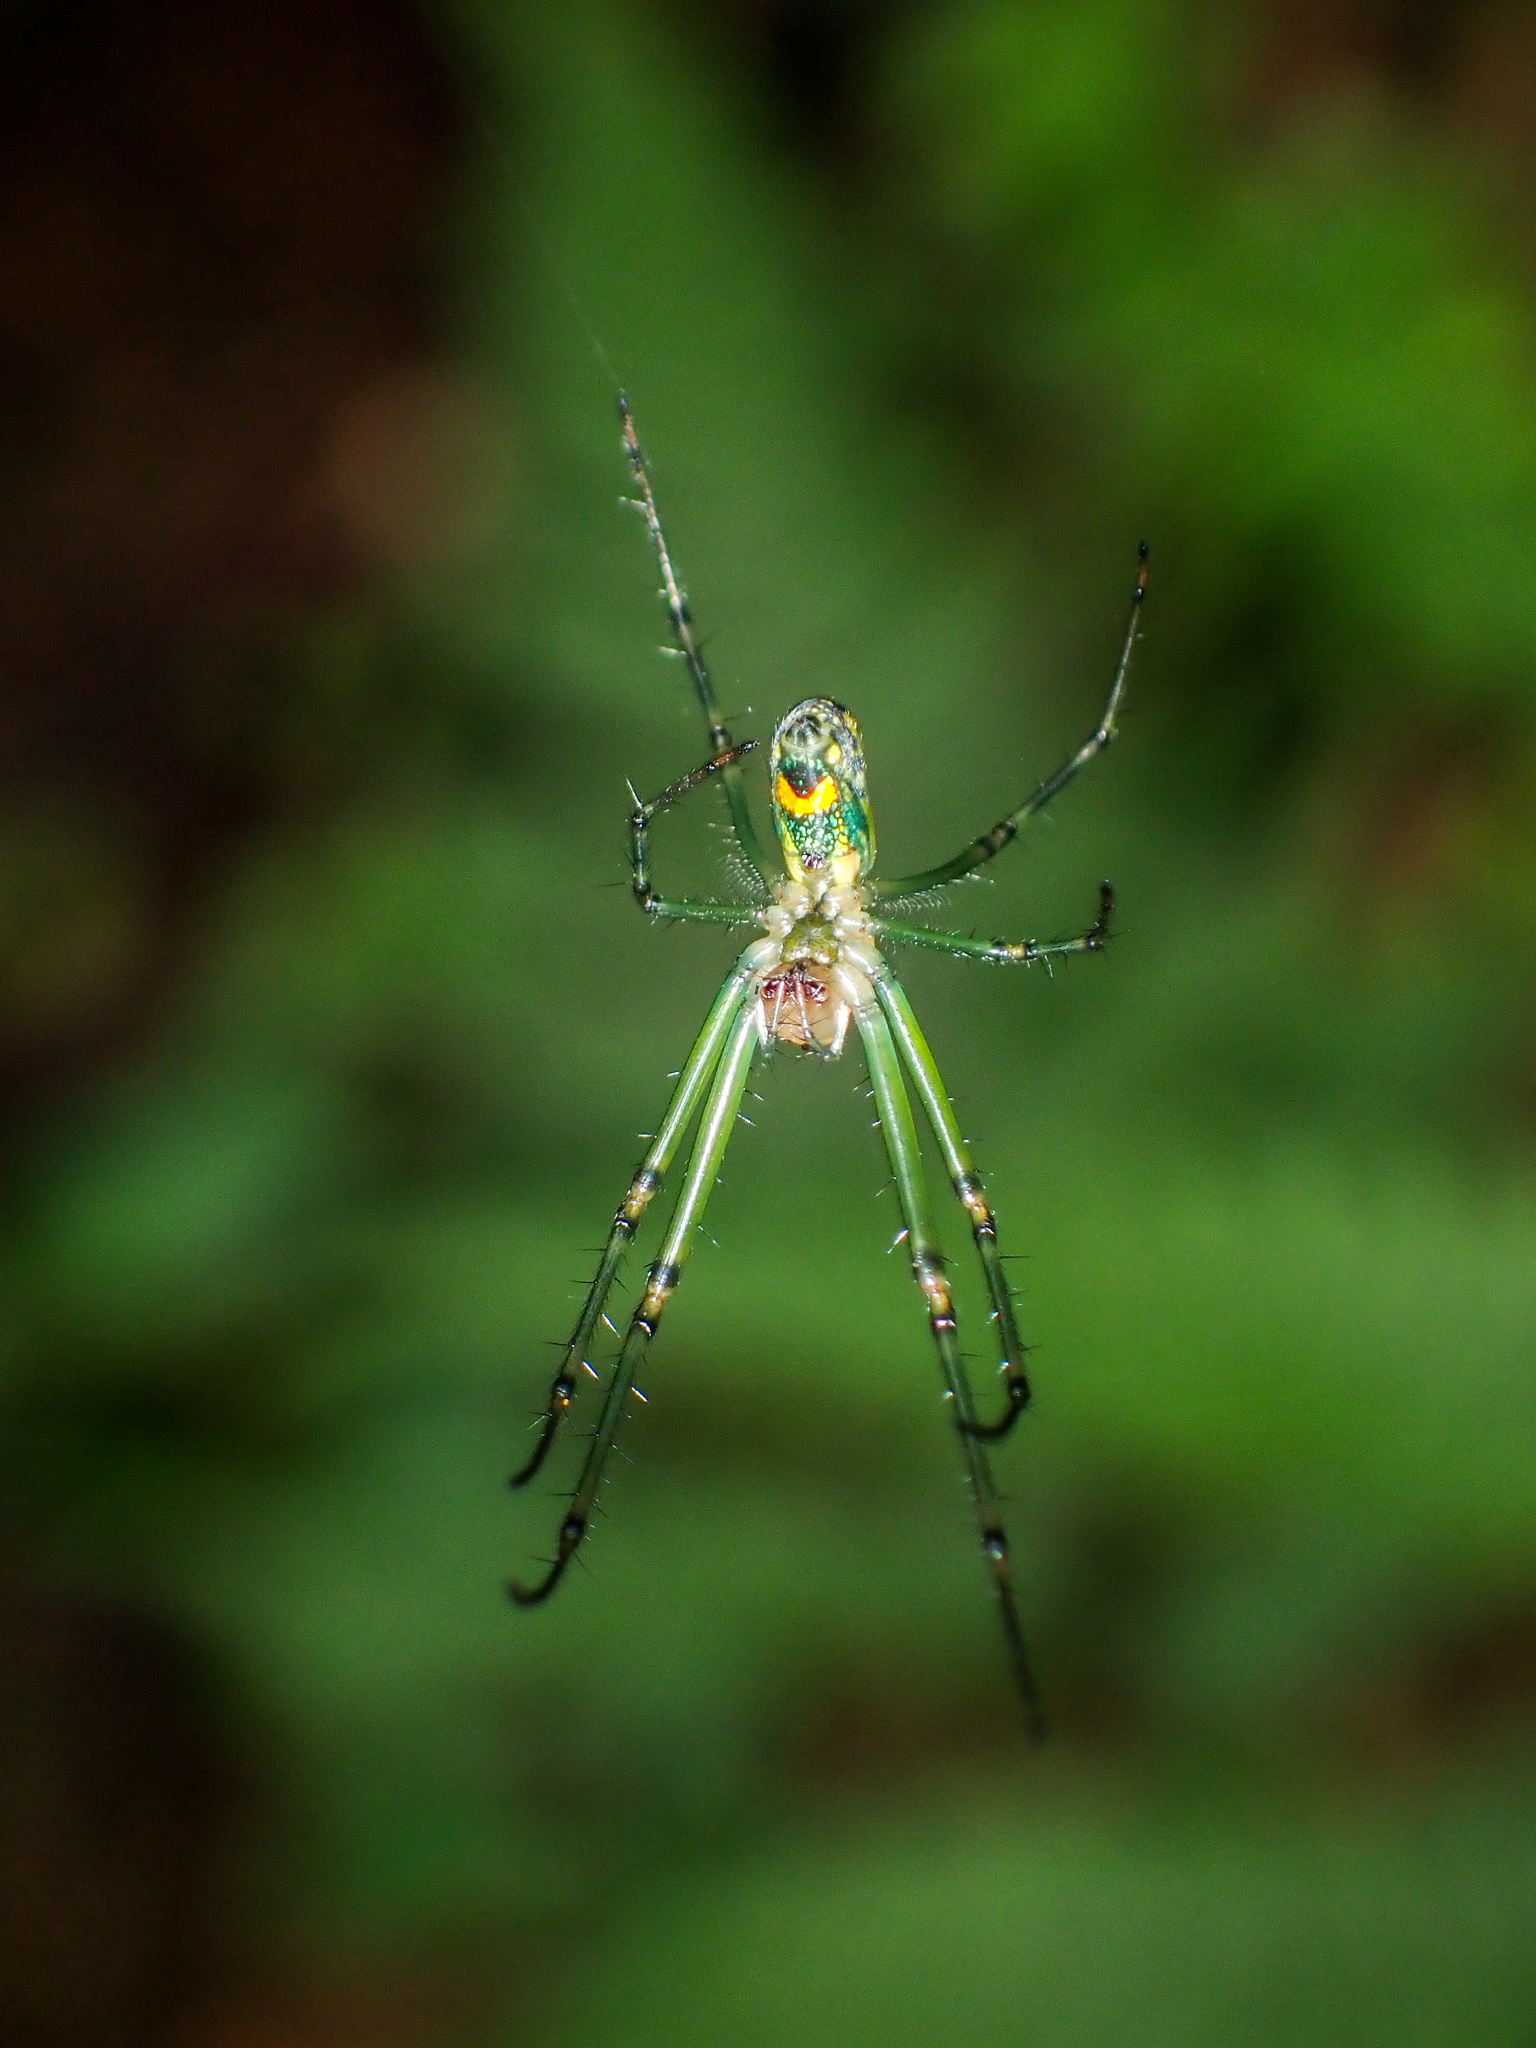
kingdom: Animalia
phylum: Arthropoda
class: Arachnida
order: Araneae
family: Tetragnathidae
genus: Leucauge
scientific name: Leucauge venusta
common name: Longjawed orb weavers
